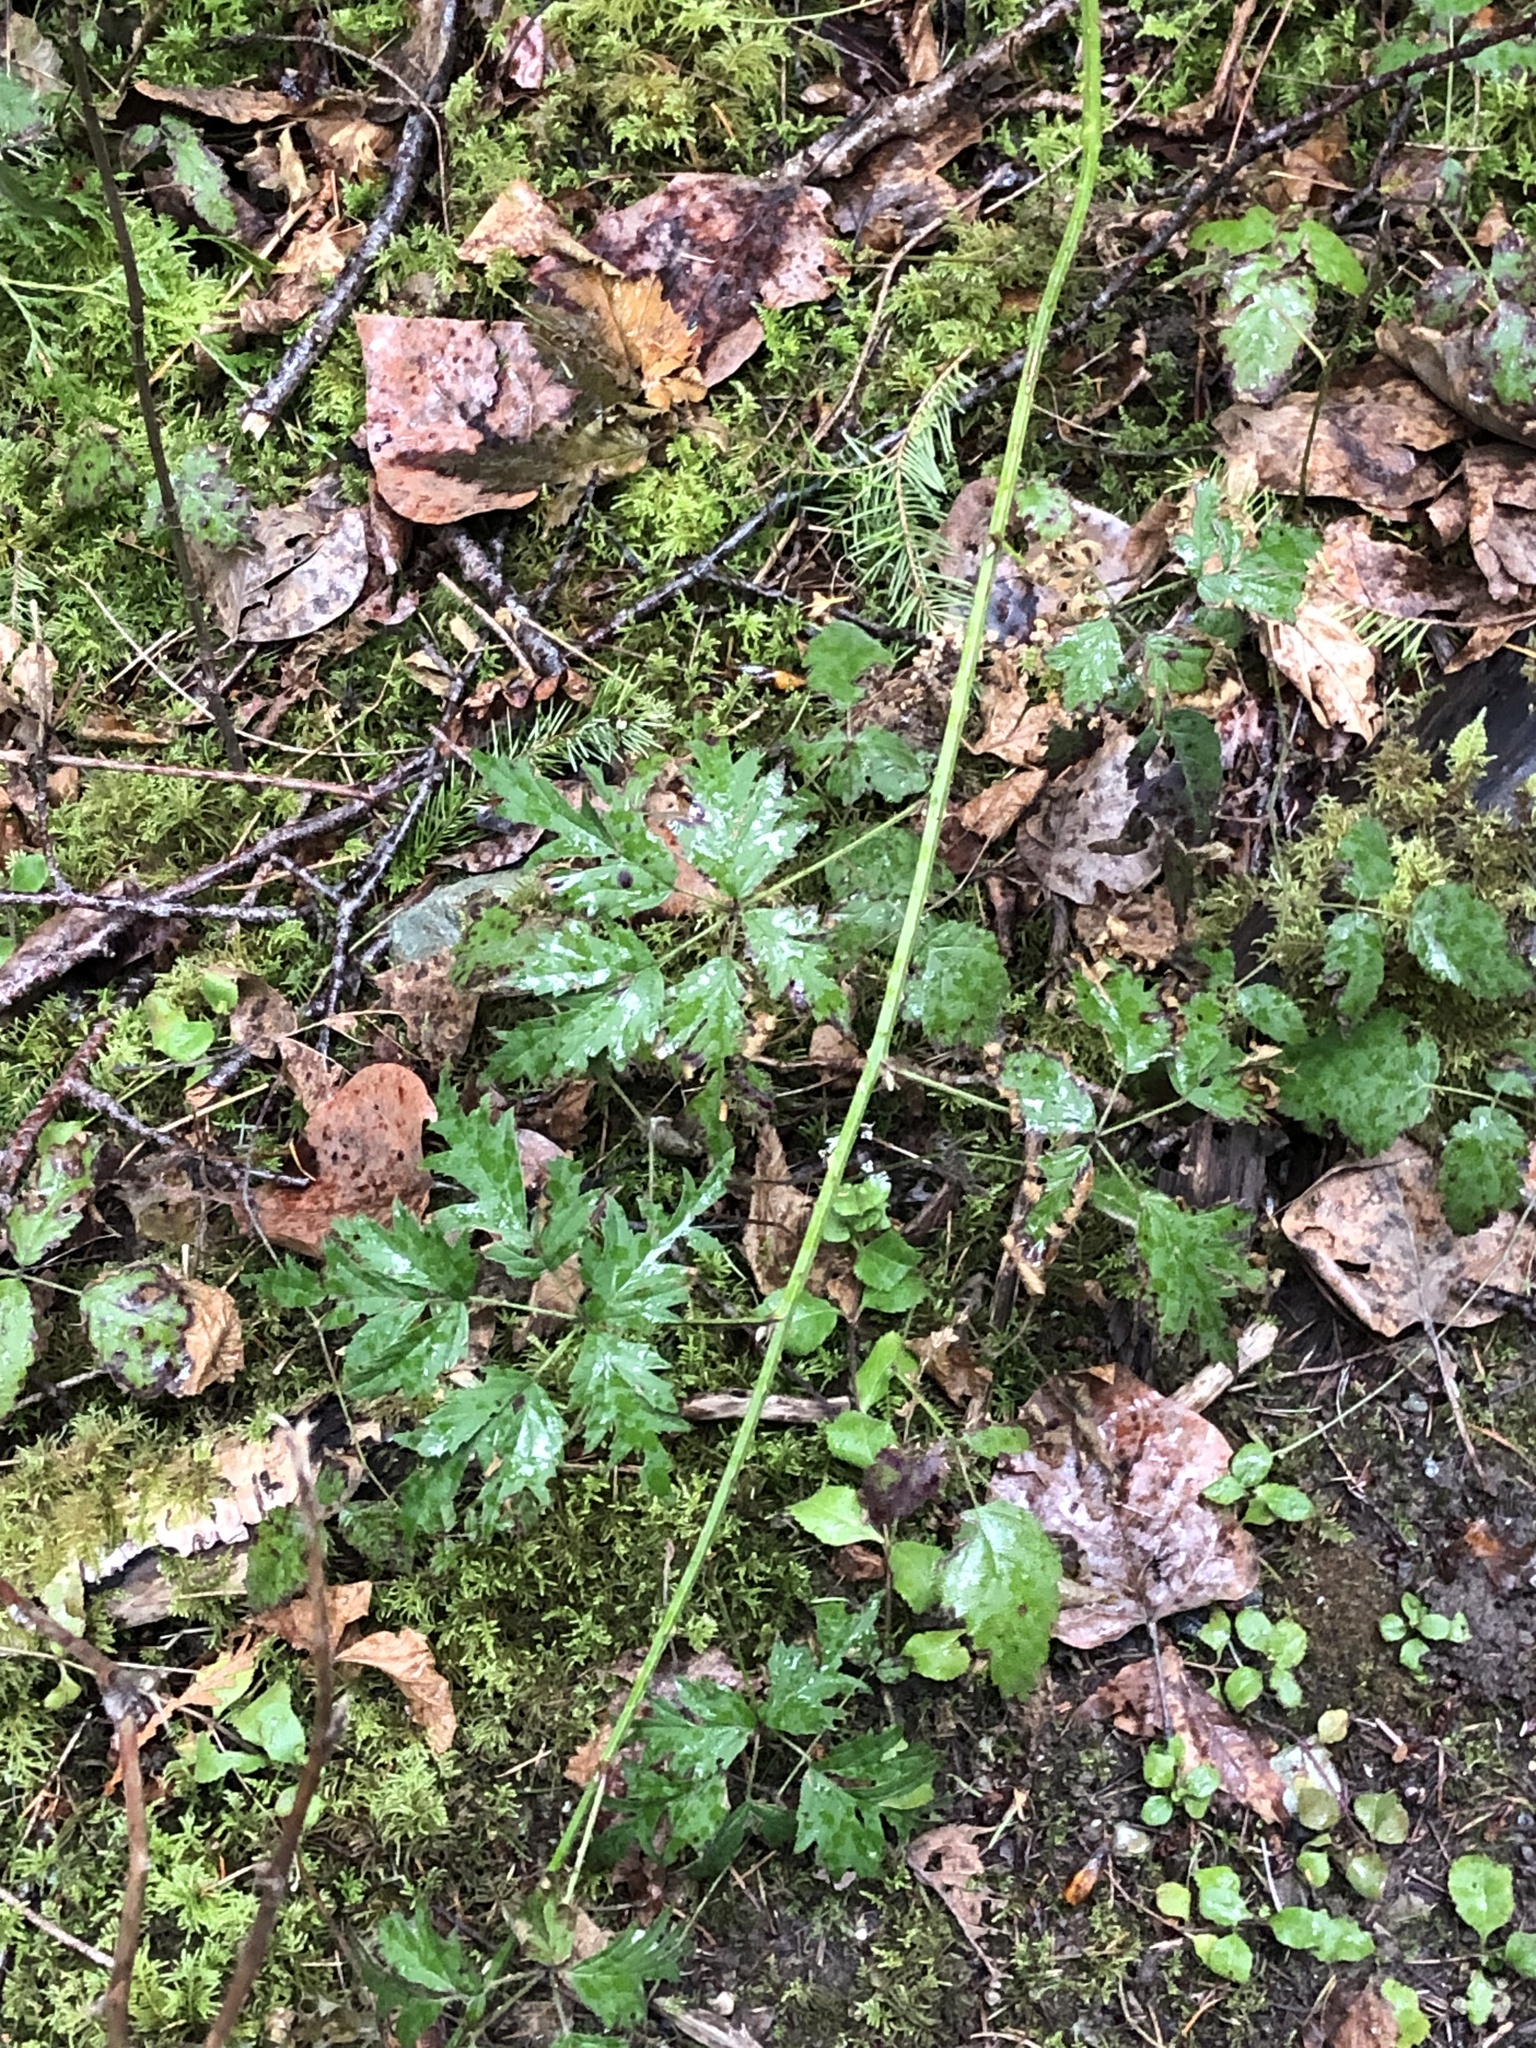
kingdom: Plantae
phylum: Tracheophyta
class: Magnoliopsida
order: Rosales
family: Rosaceae
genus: Rubus
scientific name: Rubus laciniatus
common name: Evergreen blackberry
